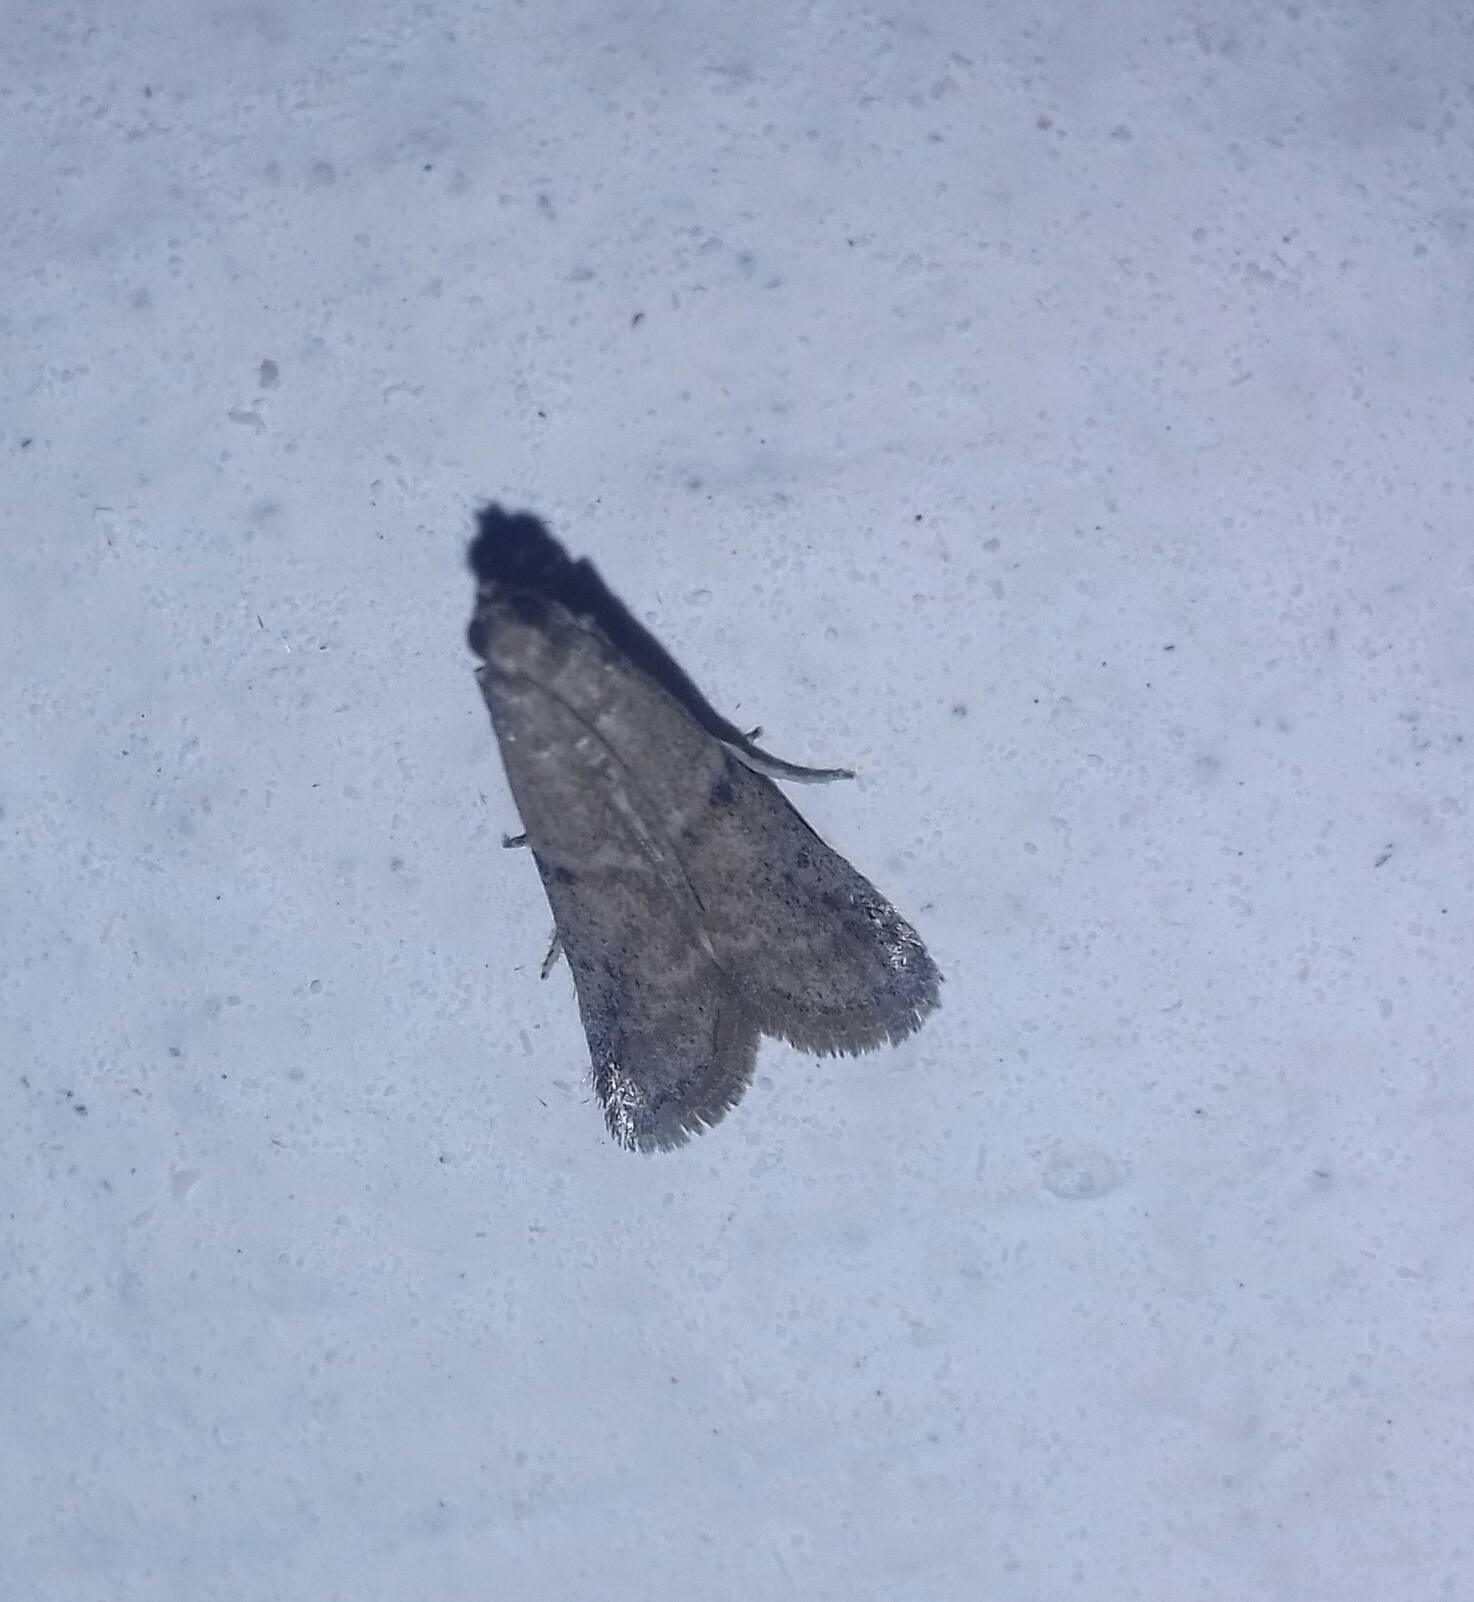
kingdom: Animalia
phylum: Arthropoda
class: Insecta
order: Lepidoptera
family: Pyralidae
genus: Ephestia
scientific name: Ephestia elutella
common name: Cacao moth
